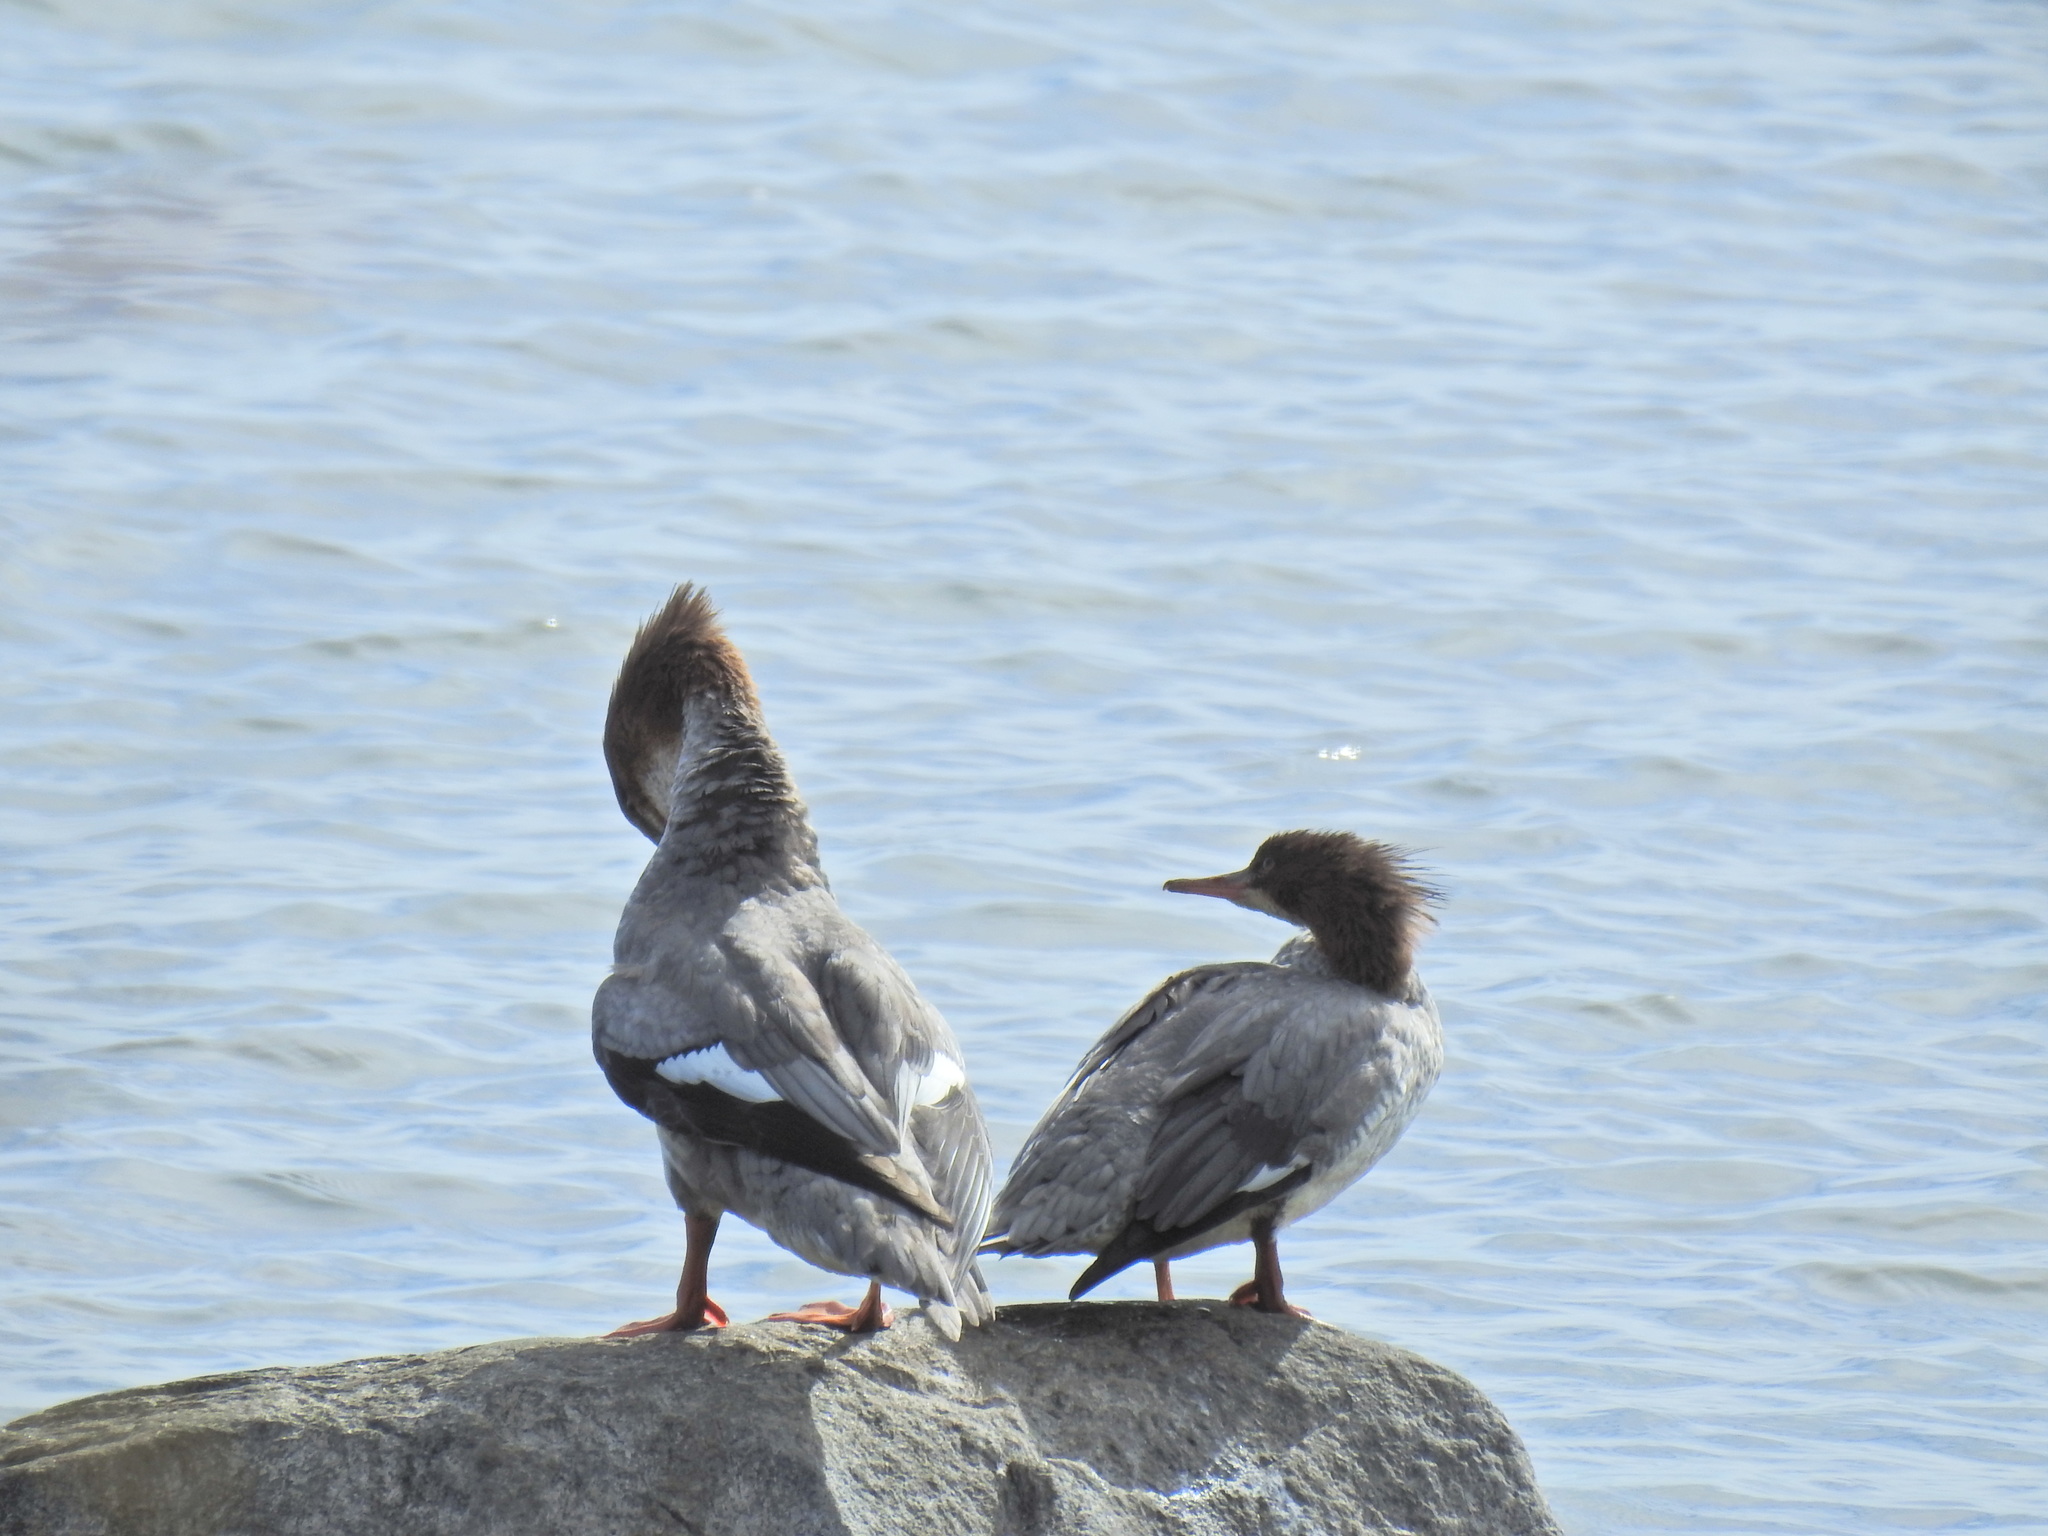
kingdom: Animalia
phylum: Chordata
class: Aves
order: Anseriformes
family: Anatidae
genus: Mergus
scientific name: Mergus merganser
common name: Common merganser
